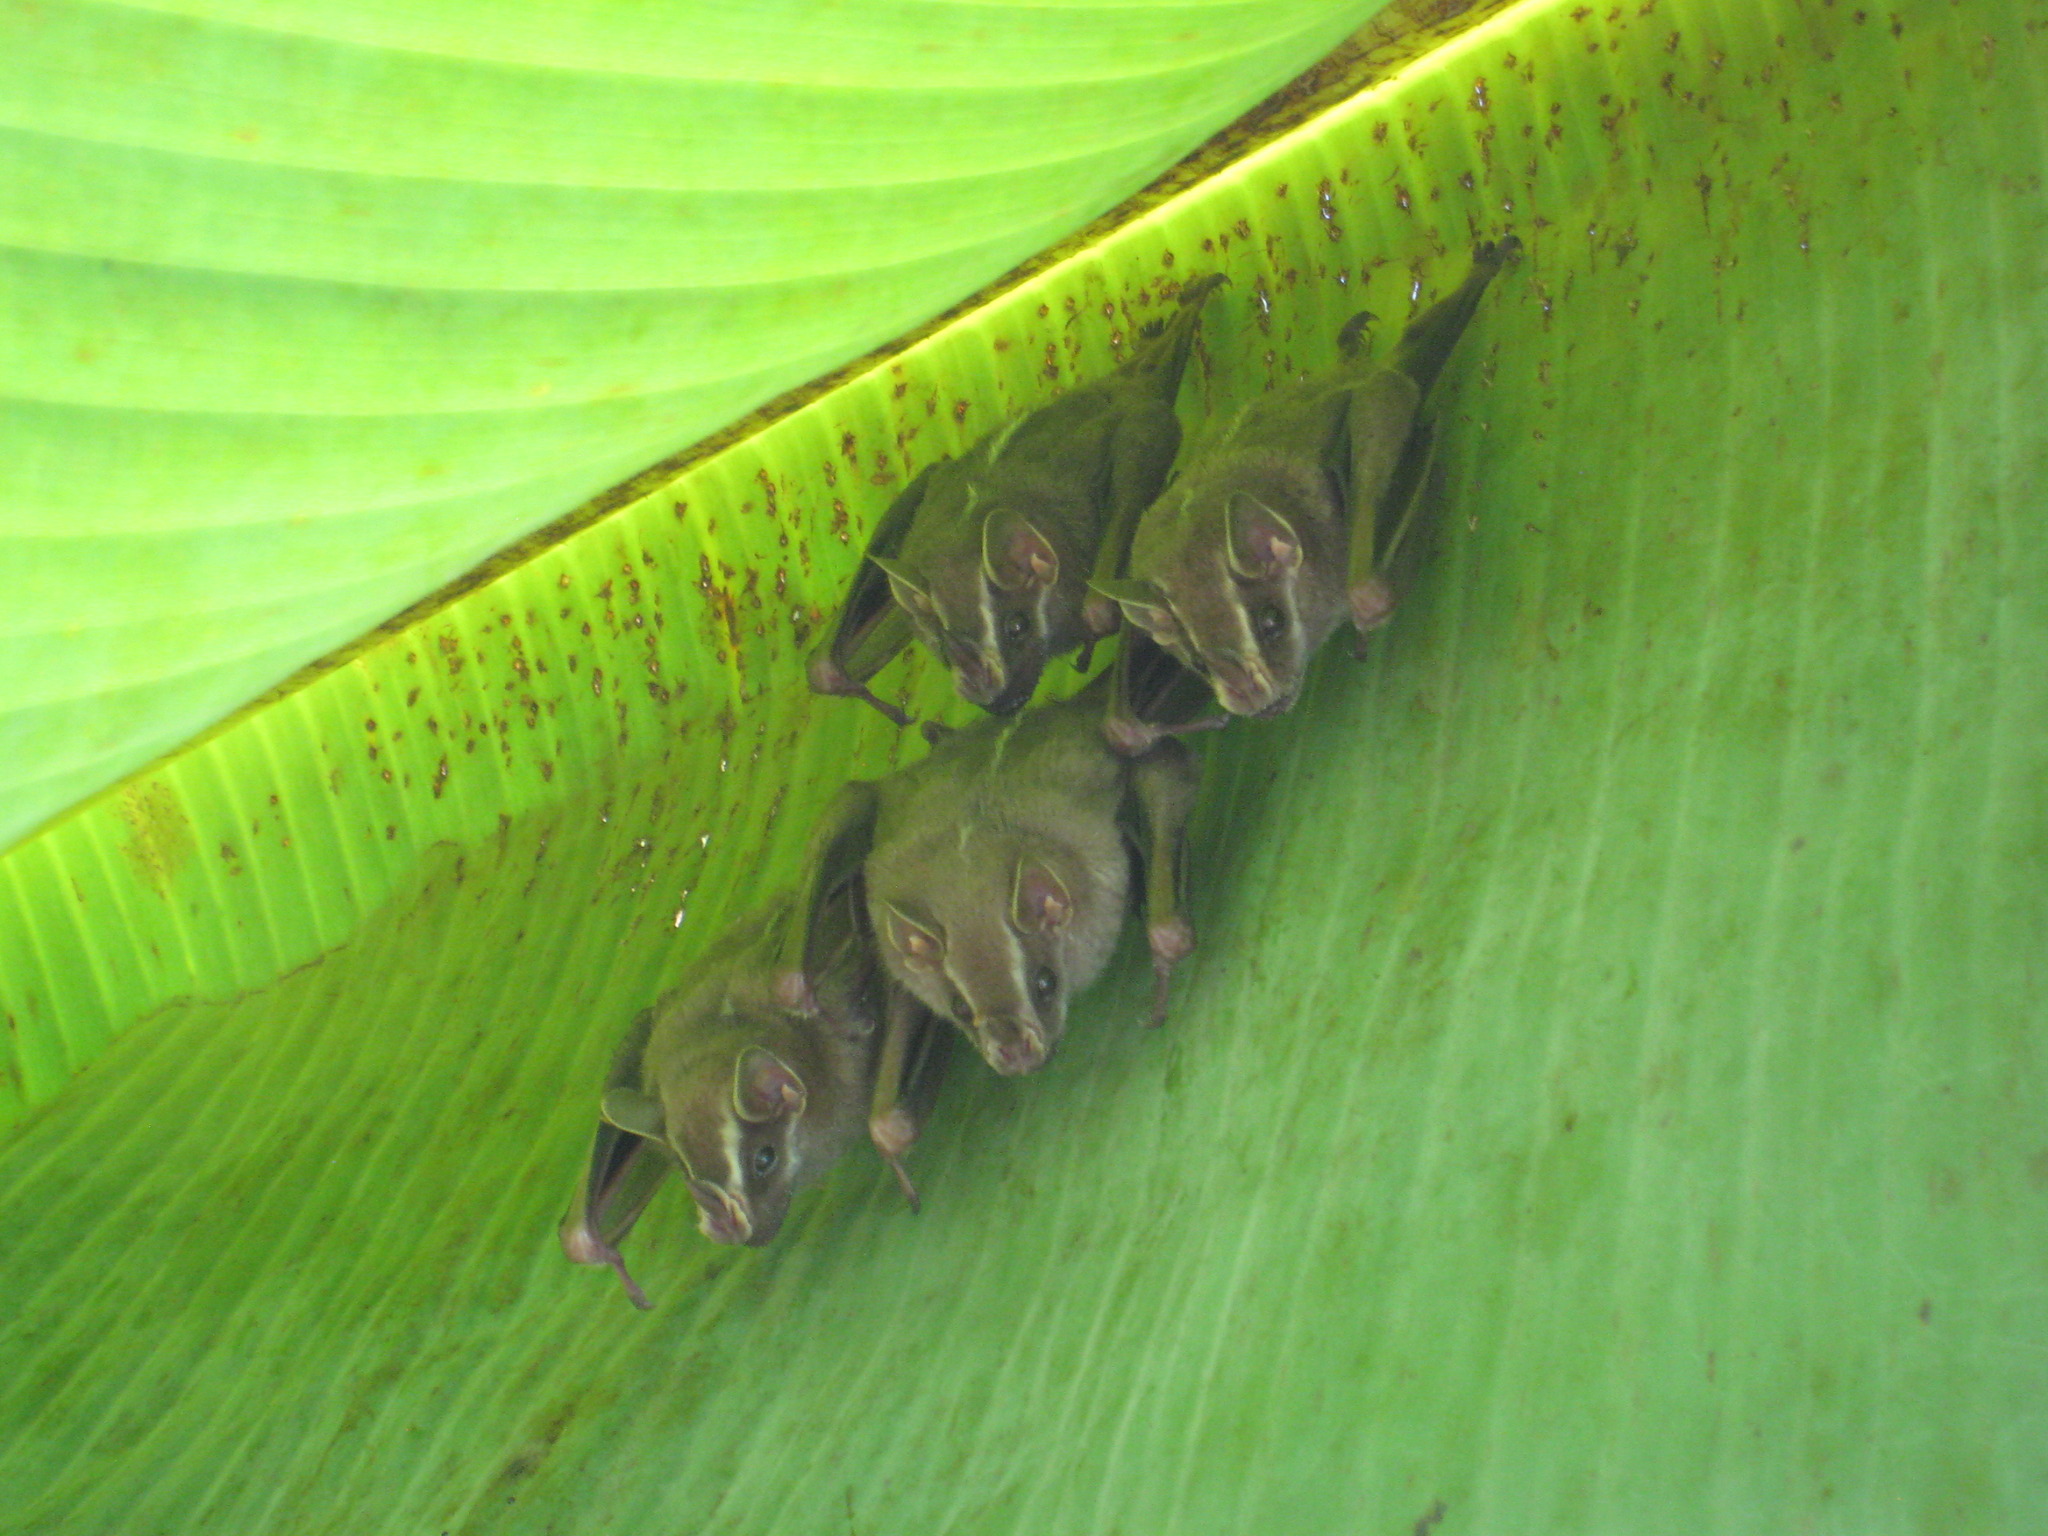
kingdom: Animalia
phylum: Chordata
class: Mammalia
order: Chiroptera
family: Phyllostomidae
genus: Uroderma
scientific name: Uroderma bilobatum
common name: Common tent-making bat
